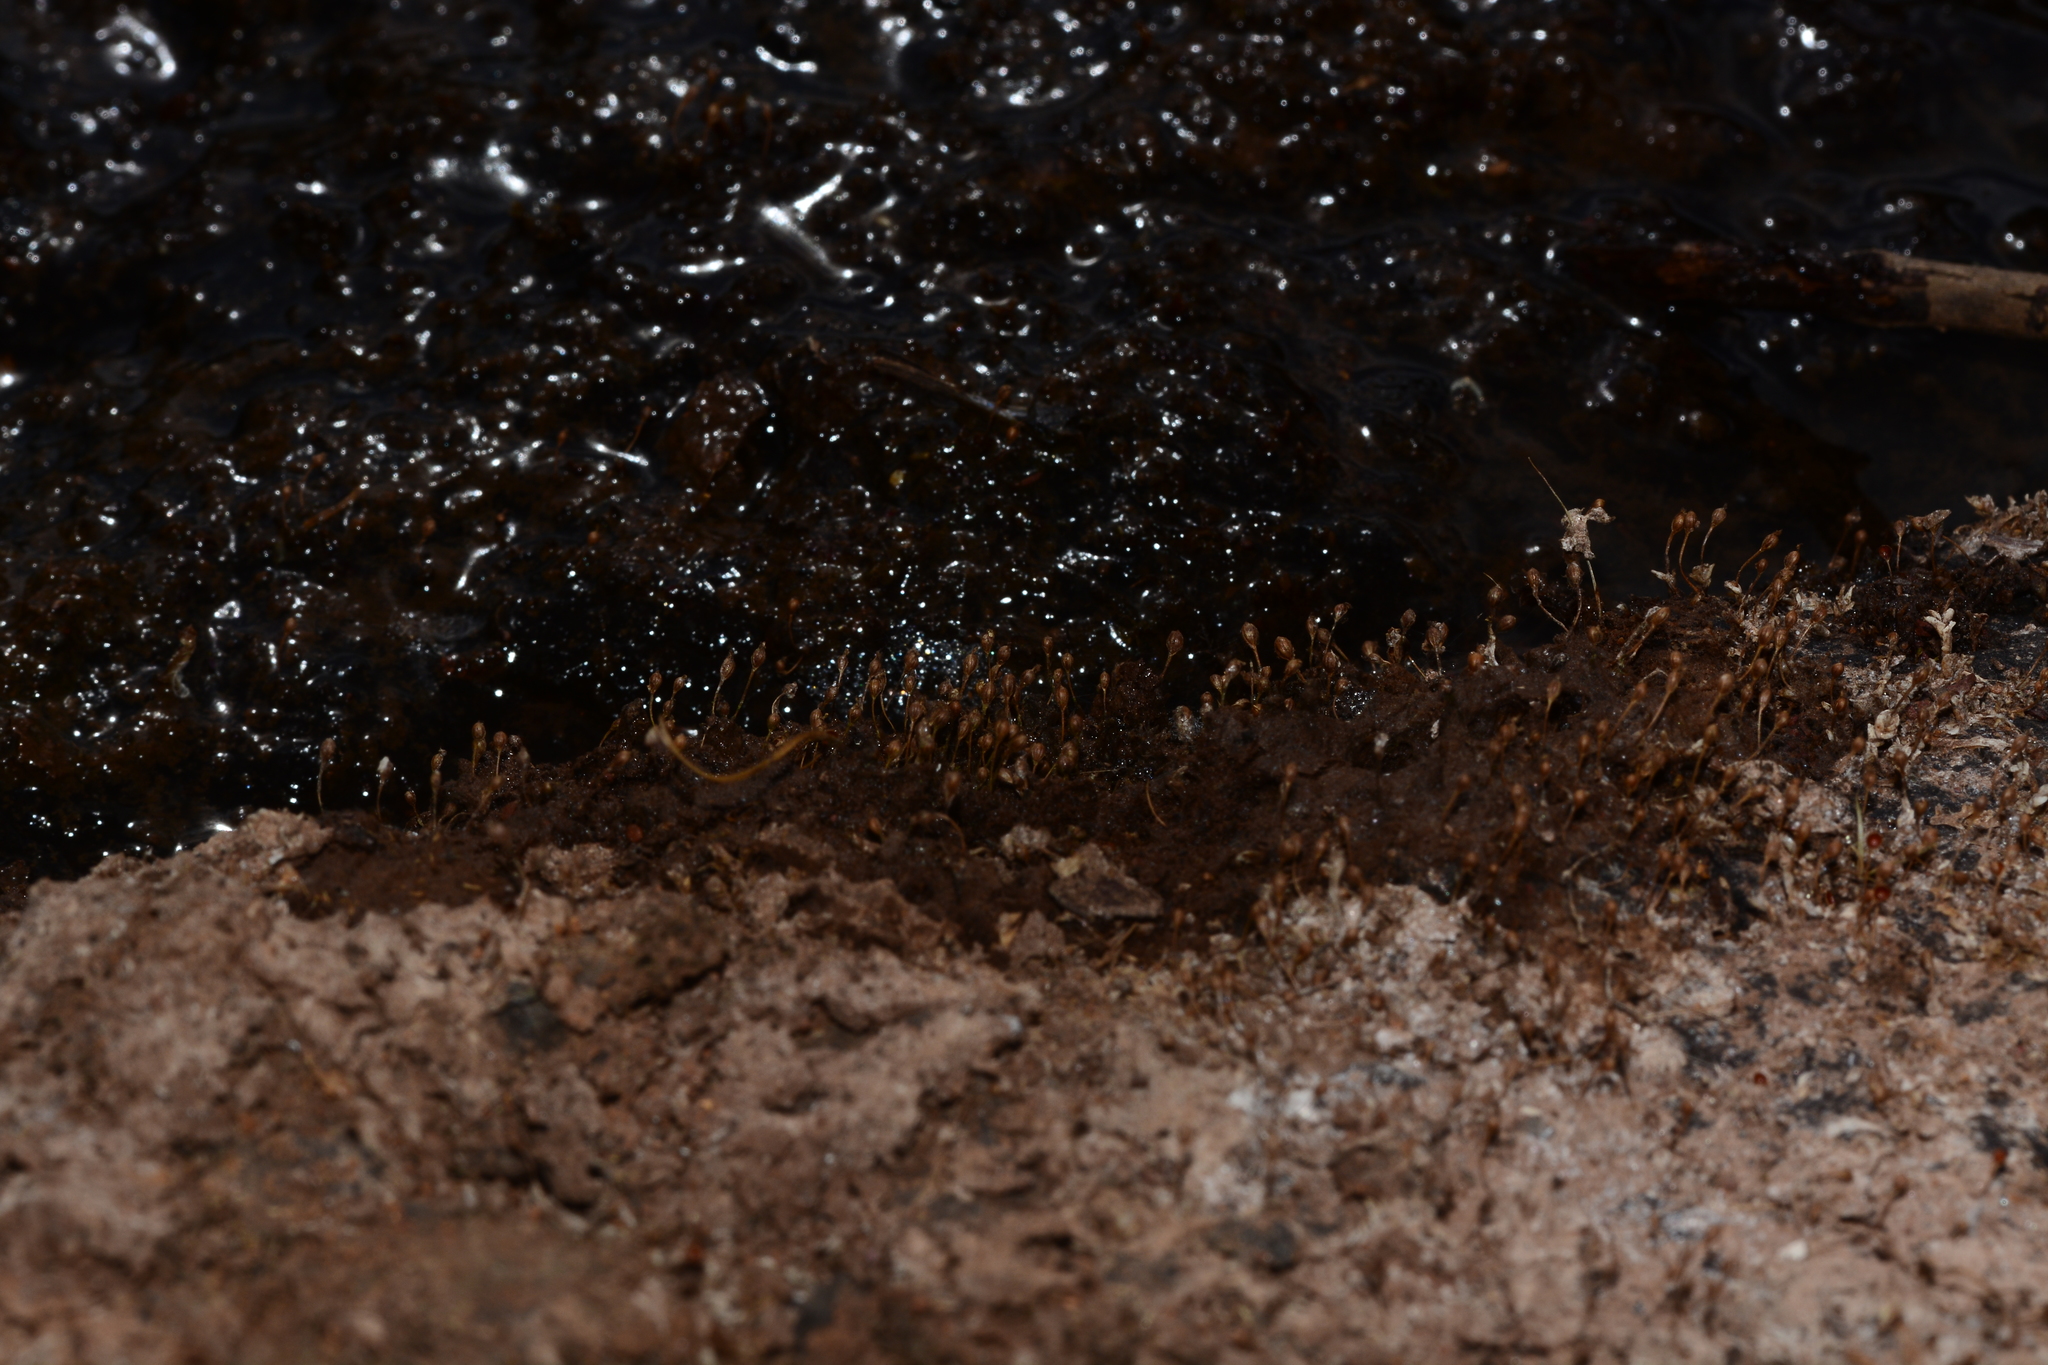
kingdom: Plantae
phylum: Tracheophyta
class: Magnoliopsida
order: Malpighiales
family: Podostemaceae
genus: Dalzellia
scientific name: Dalzellia ceylanica
